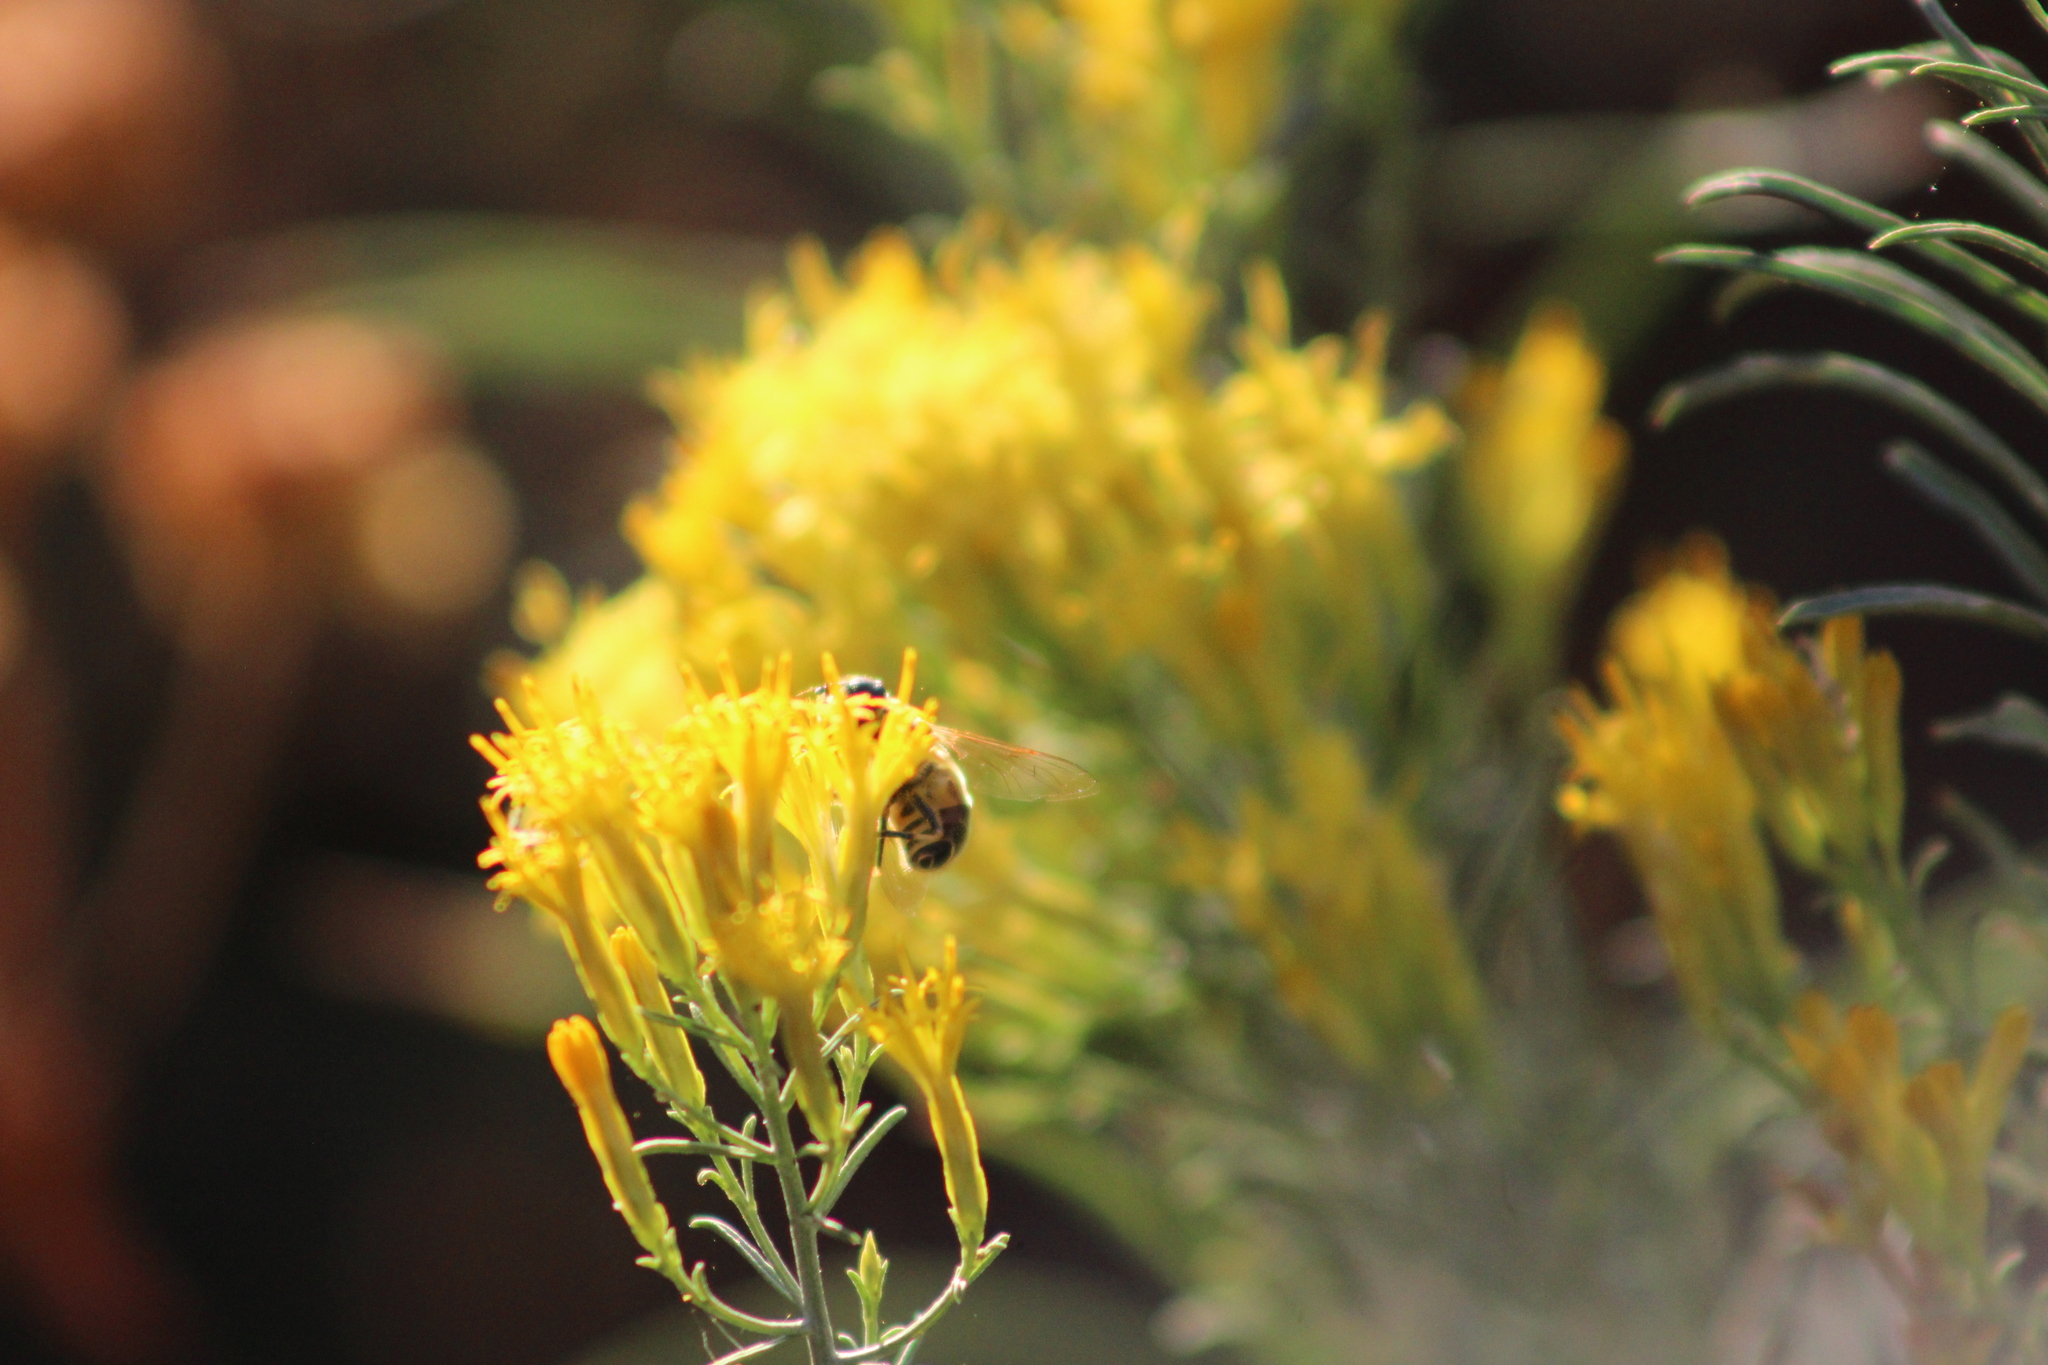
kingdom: Animalia
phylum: Arthropoda
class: Insecta
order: Diptera
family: Syrphidae
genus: Eristalis
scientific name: Eristalis hirta
